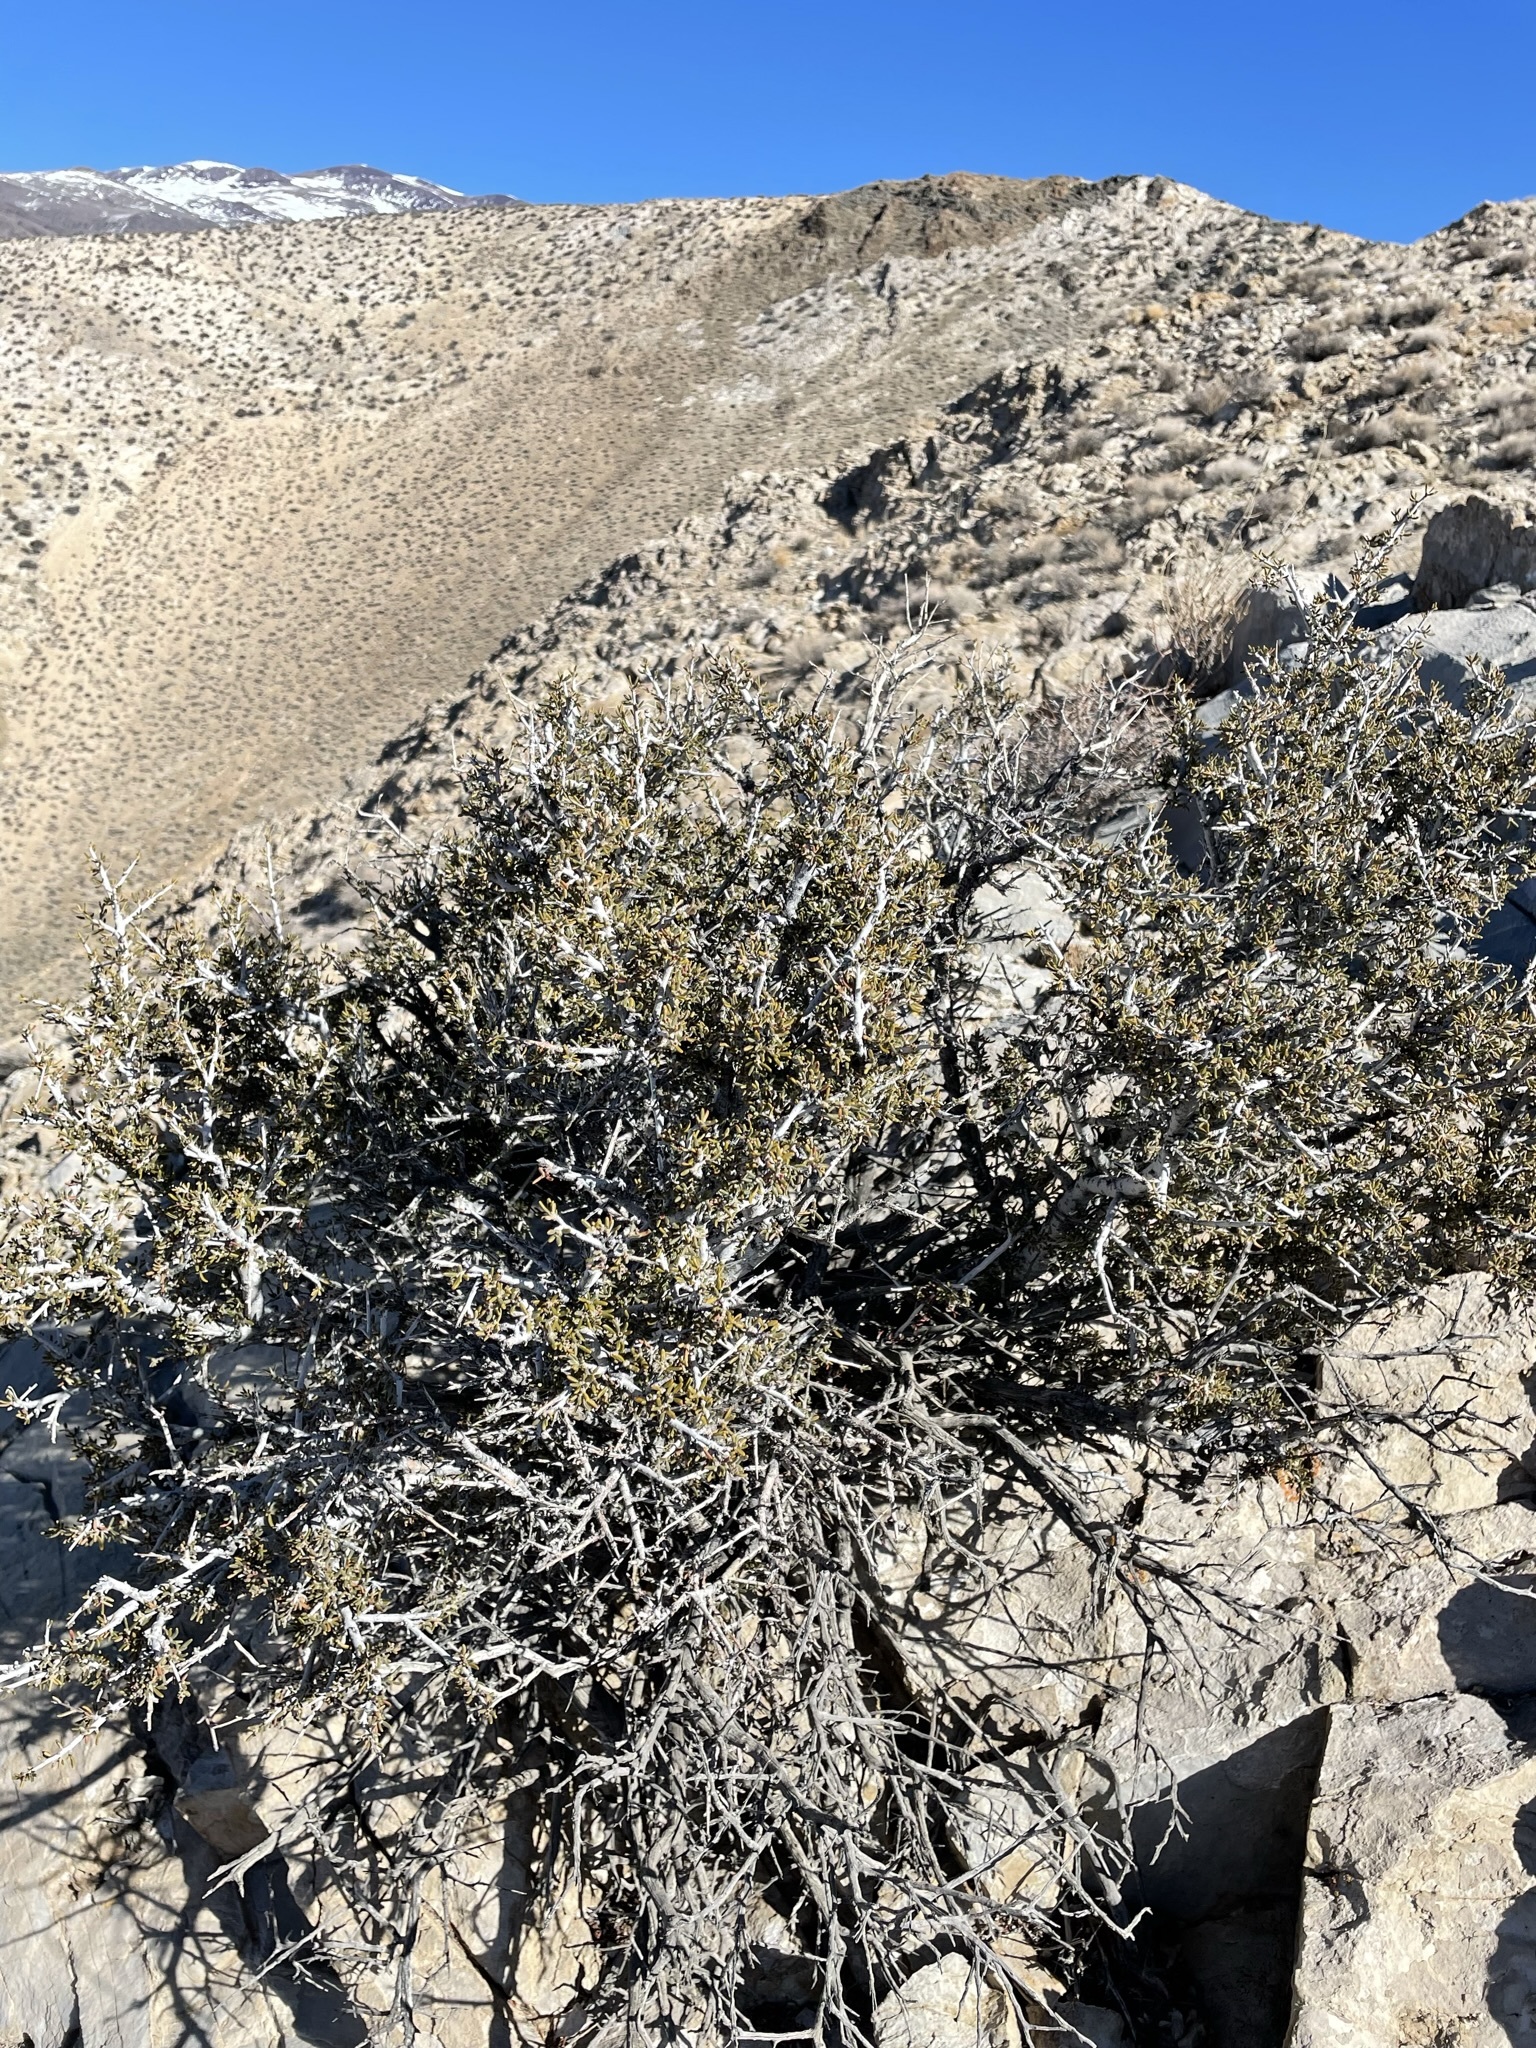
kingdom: Plantae
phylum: Tracheophyta
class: Magnoliopsida
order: Rosales
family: Rosaceae
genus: Cercocarpus
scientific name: Cercocarpus intricatus
